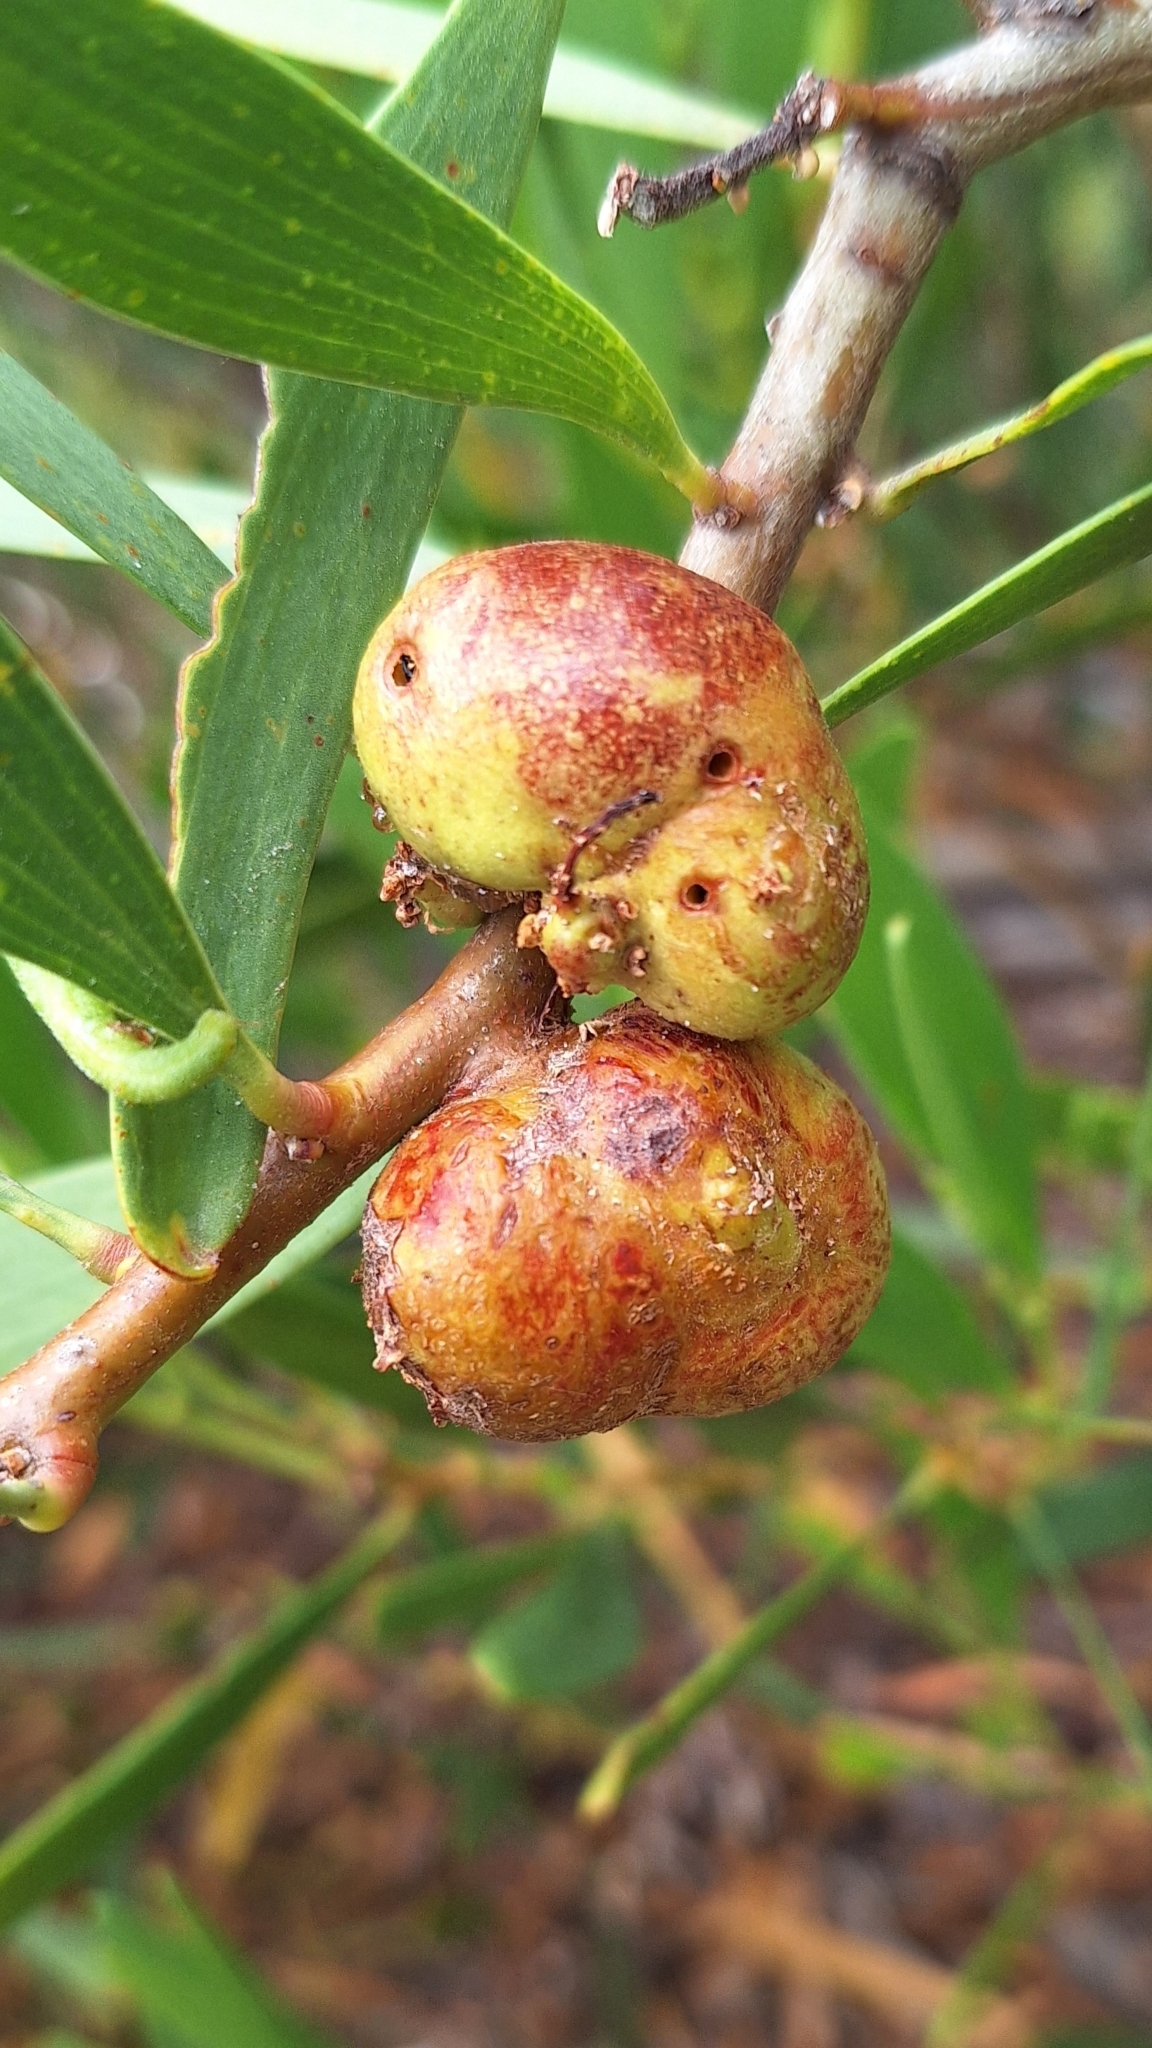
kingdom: Animalia
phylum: Arthropoda
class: Insecta
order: Hymenoptera
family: Pteromalidae
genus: Trichilogaster
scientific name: Trichilogaster acaciaelongifoliae
